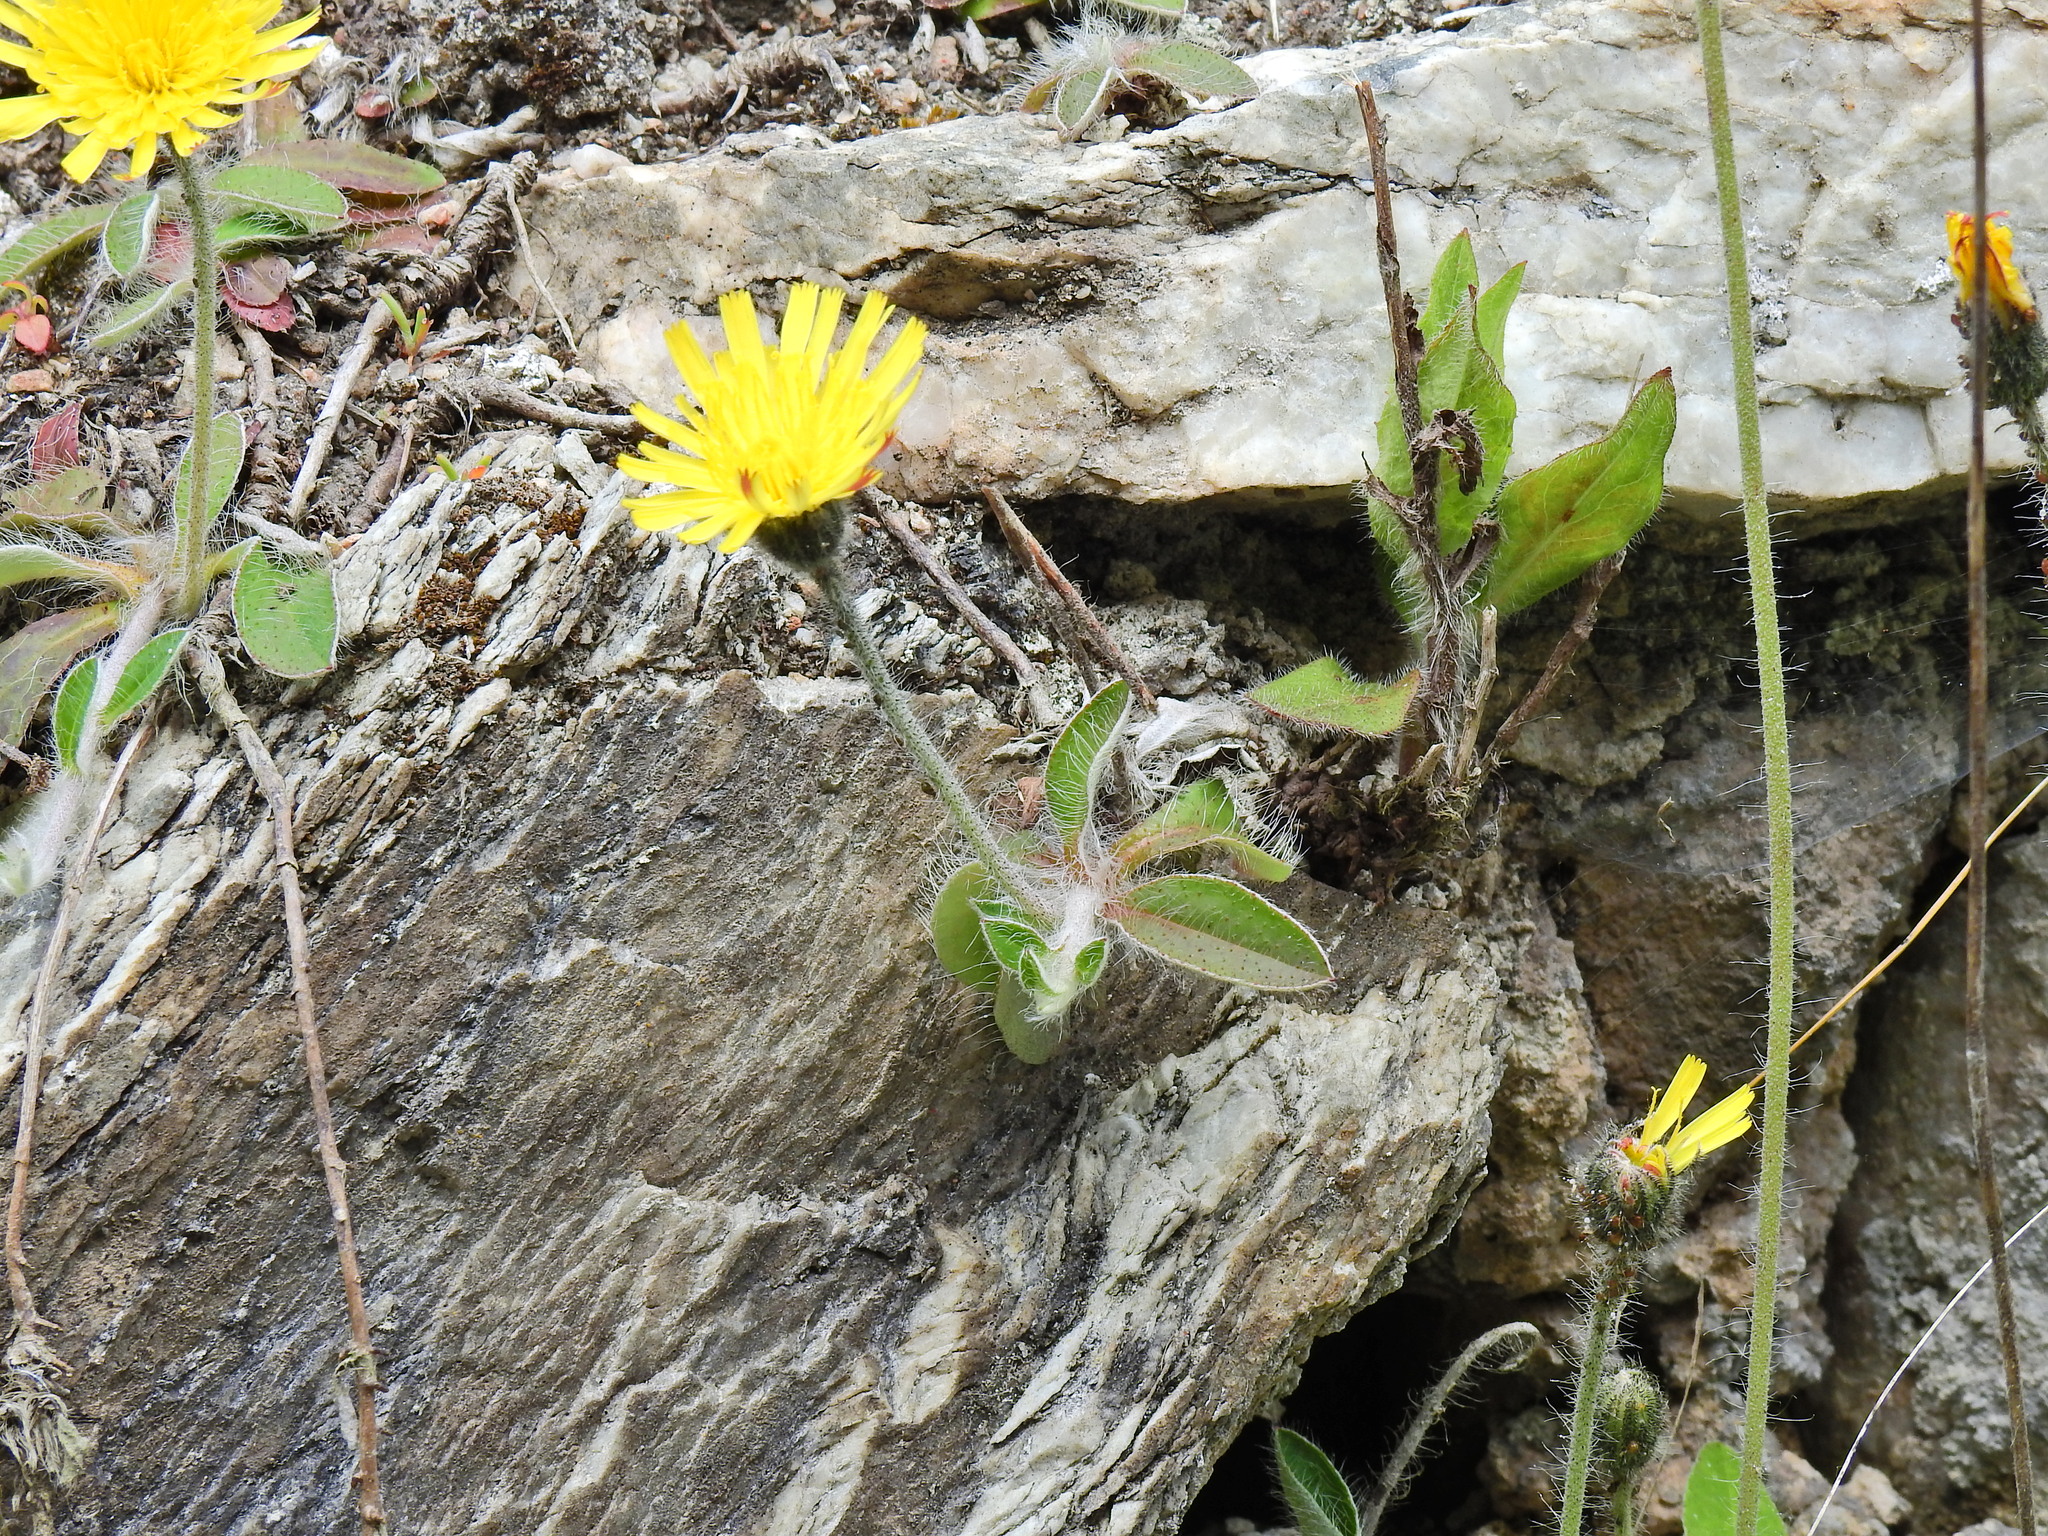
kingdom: Plantae
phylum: Tracheophyta
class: Magnoliopsida
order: Asterales
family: Asteraceae
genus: Pilosella
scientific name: Pilosella officinarum
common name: Mouse-ear hawkweed
